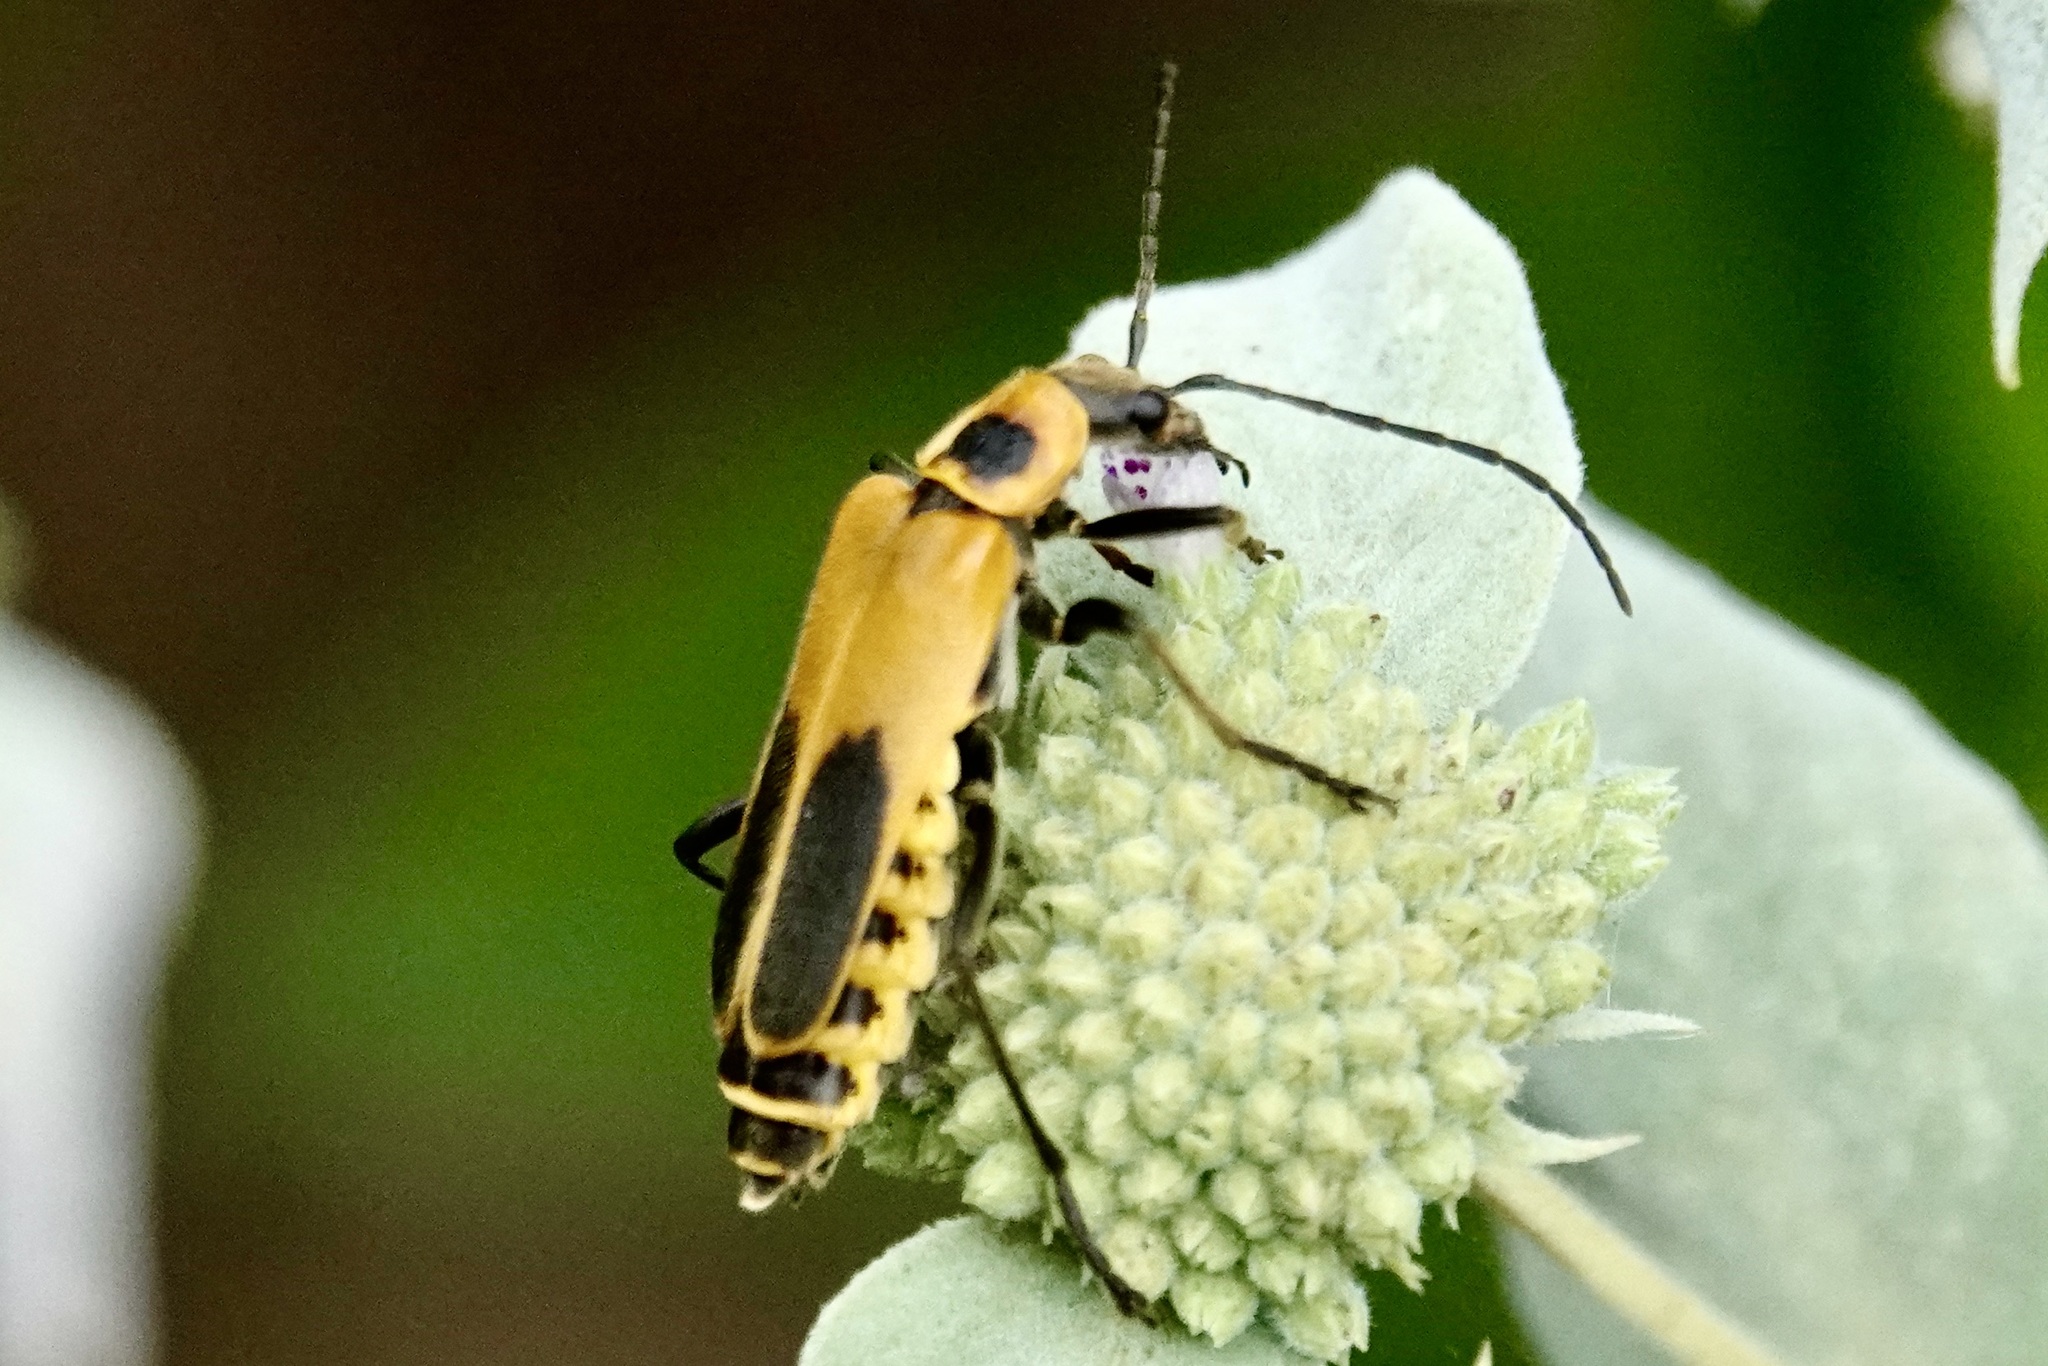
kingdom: Animalia
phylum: Arthropoda
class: Insecta
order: Coleoptera
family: Cantharidae
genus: Chauliognathus
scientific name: Chauliognathus pensylvanicus
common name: Goldenrod soldier beetle
